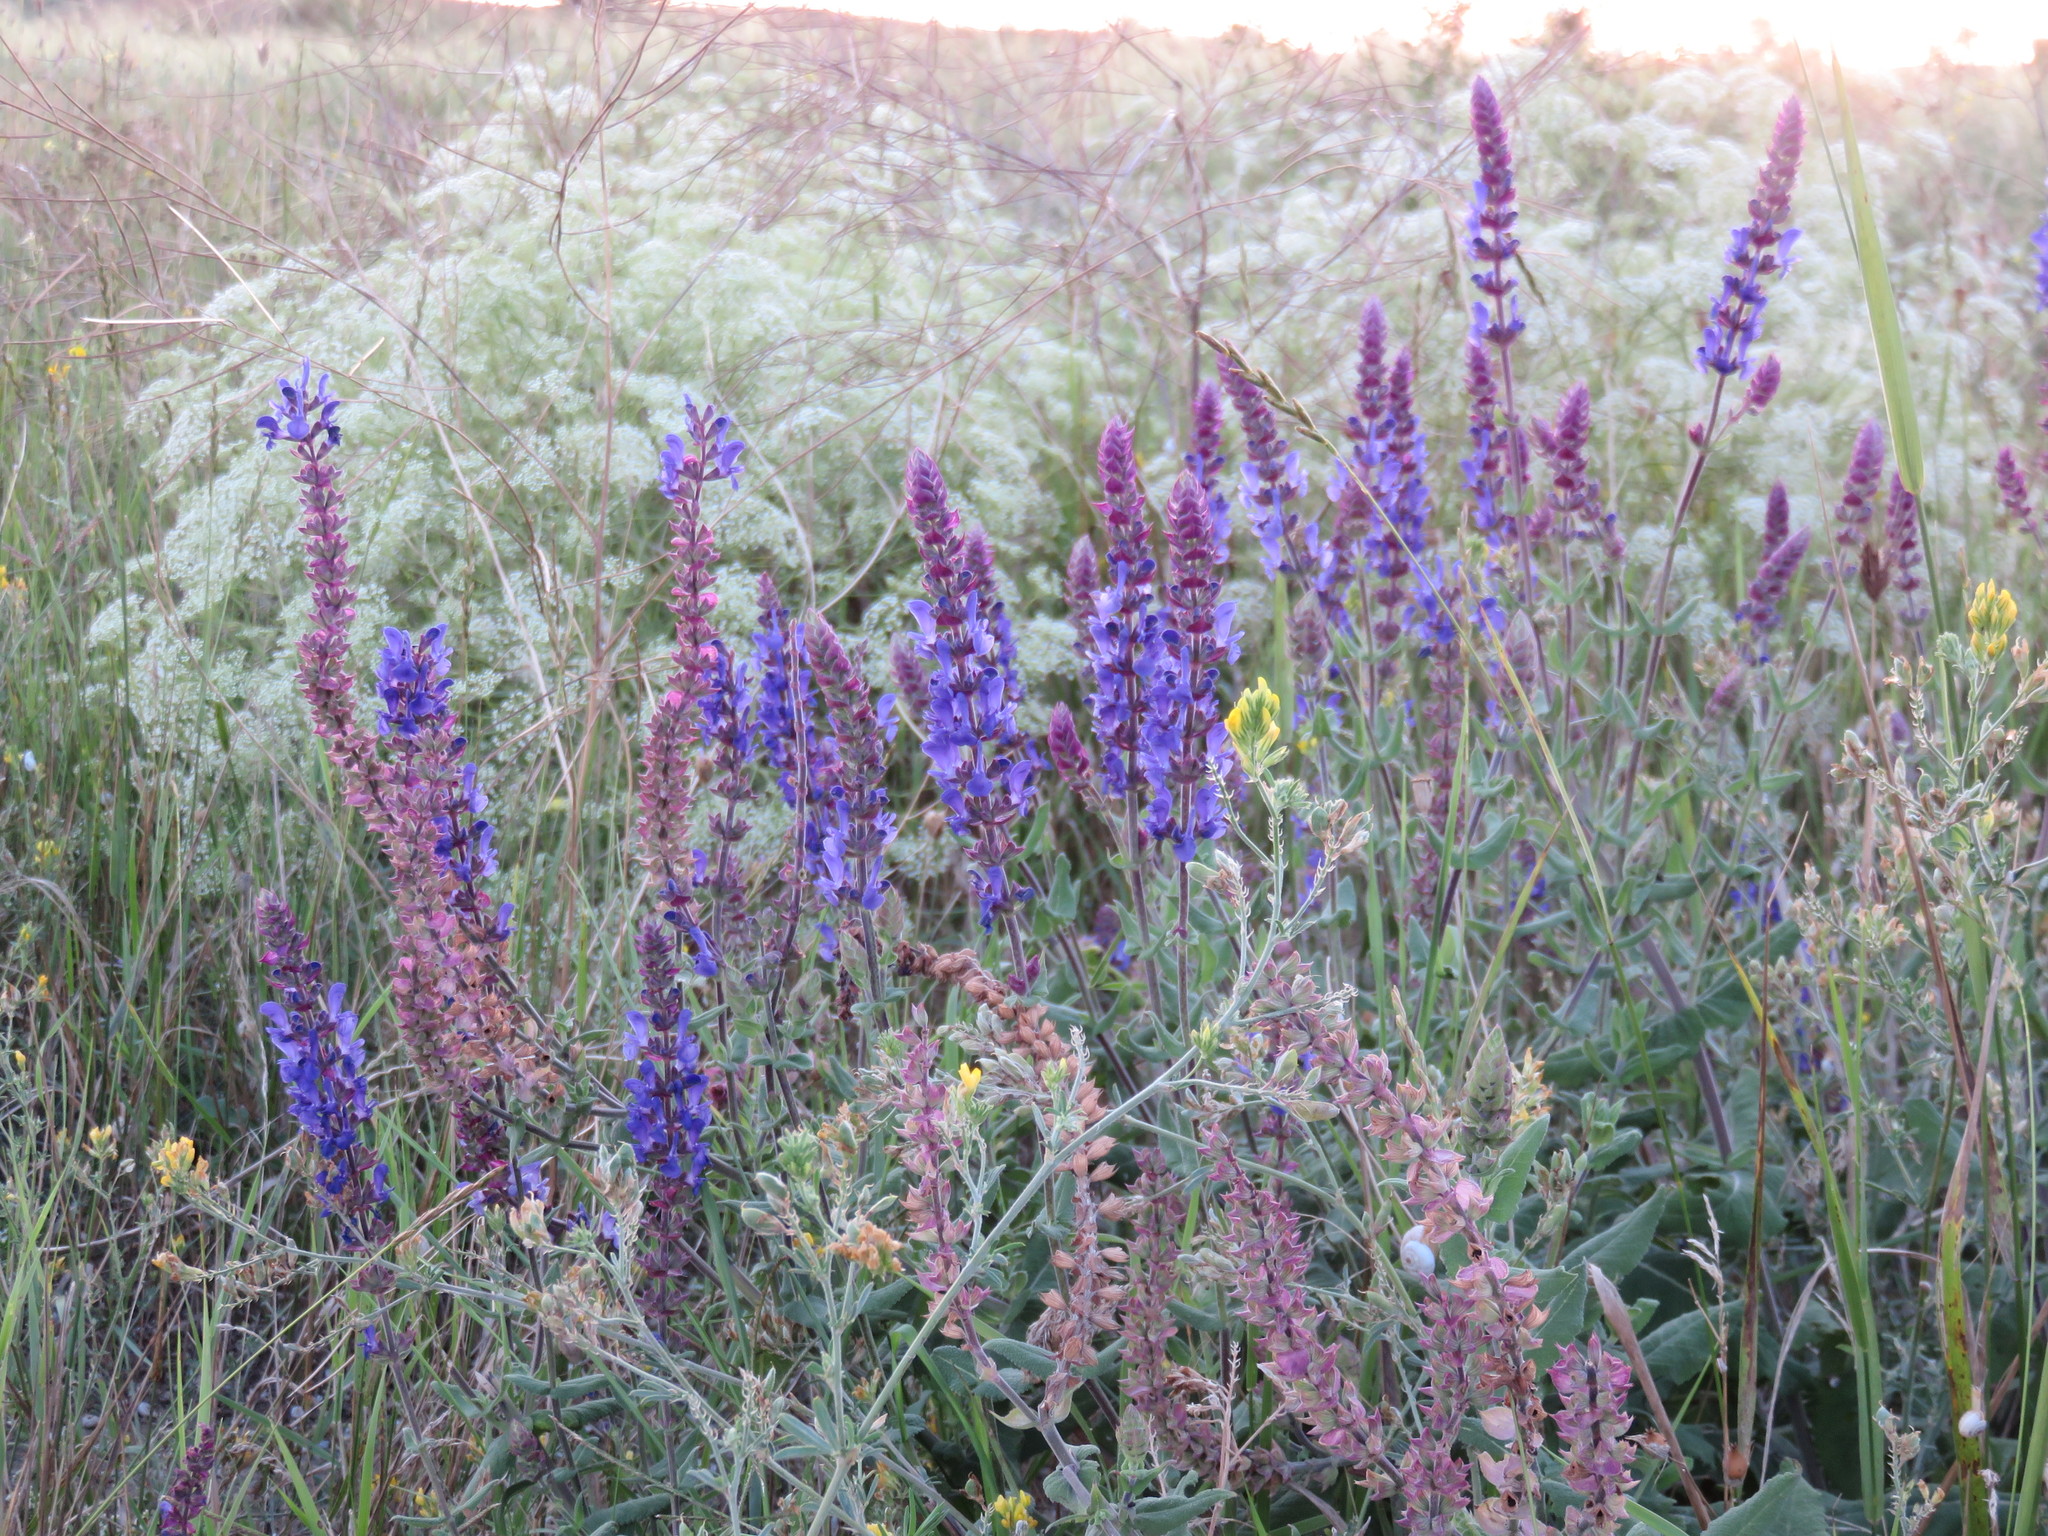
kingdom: Plantae
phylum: Tracheophyta
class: Magnoliopsida
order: Lamiales
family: Lamiaceae
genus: Salvia
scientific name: Salvia nemorosa
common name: Balkan clary
